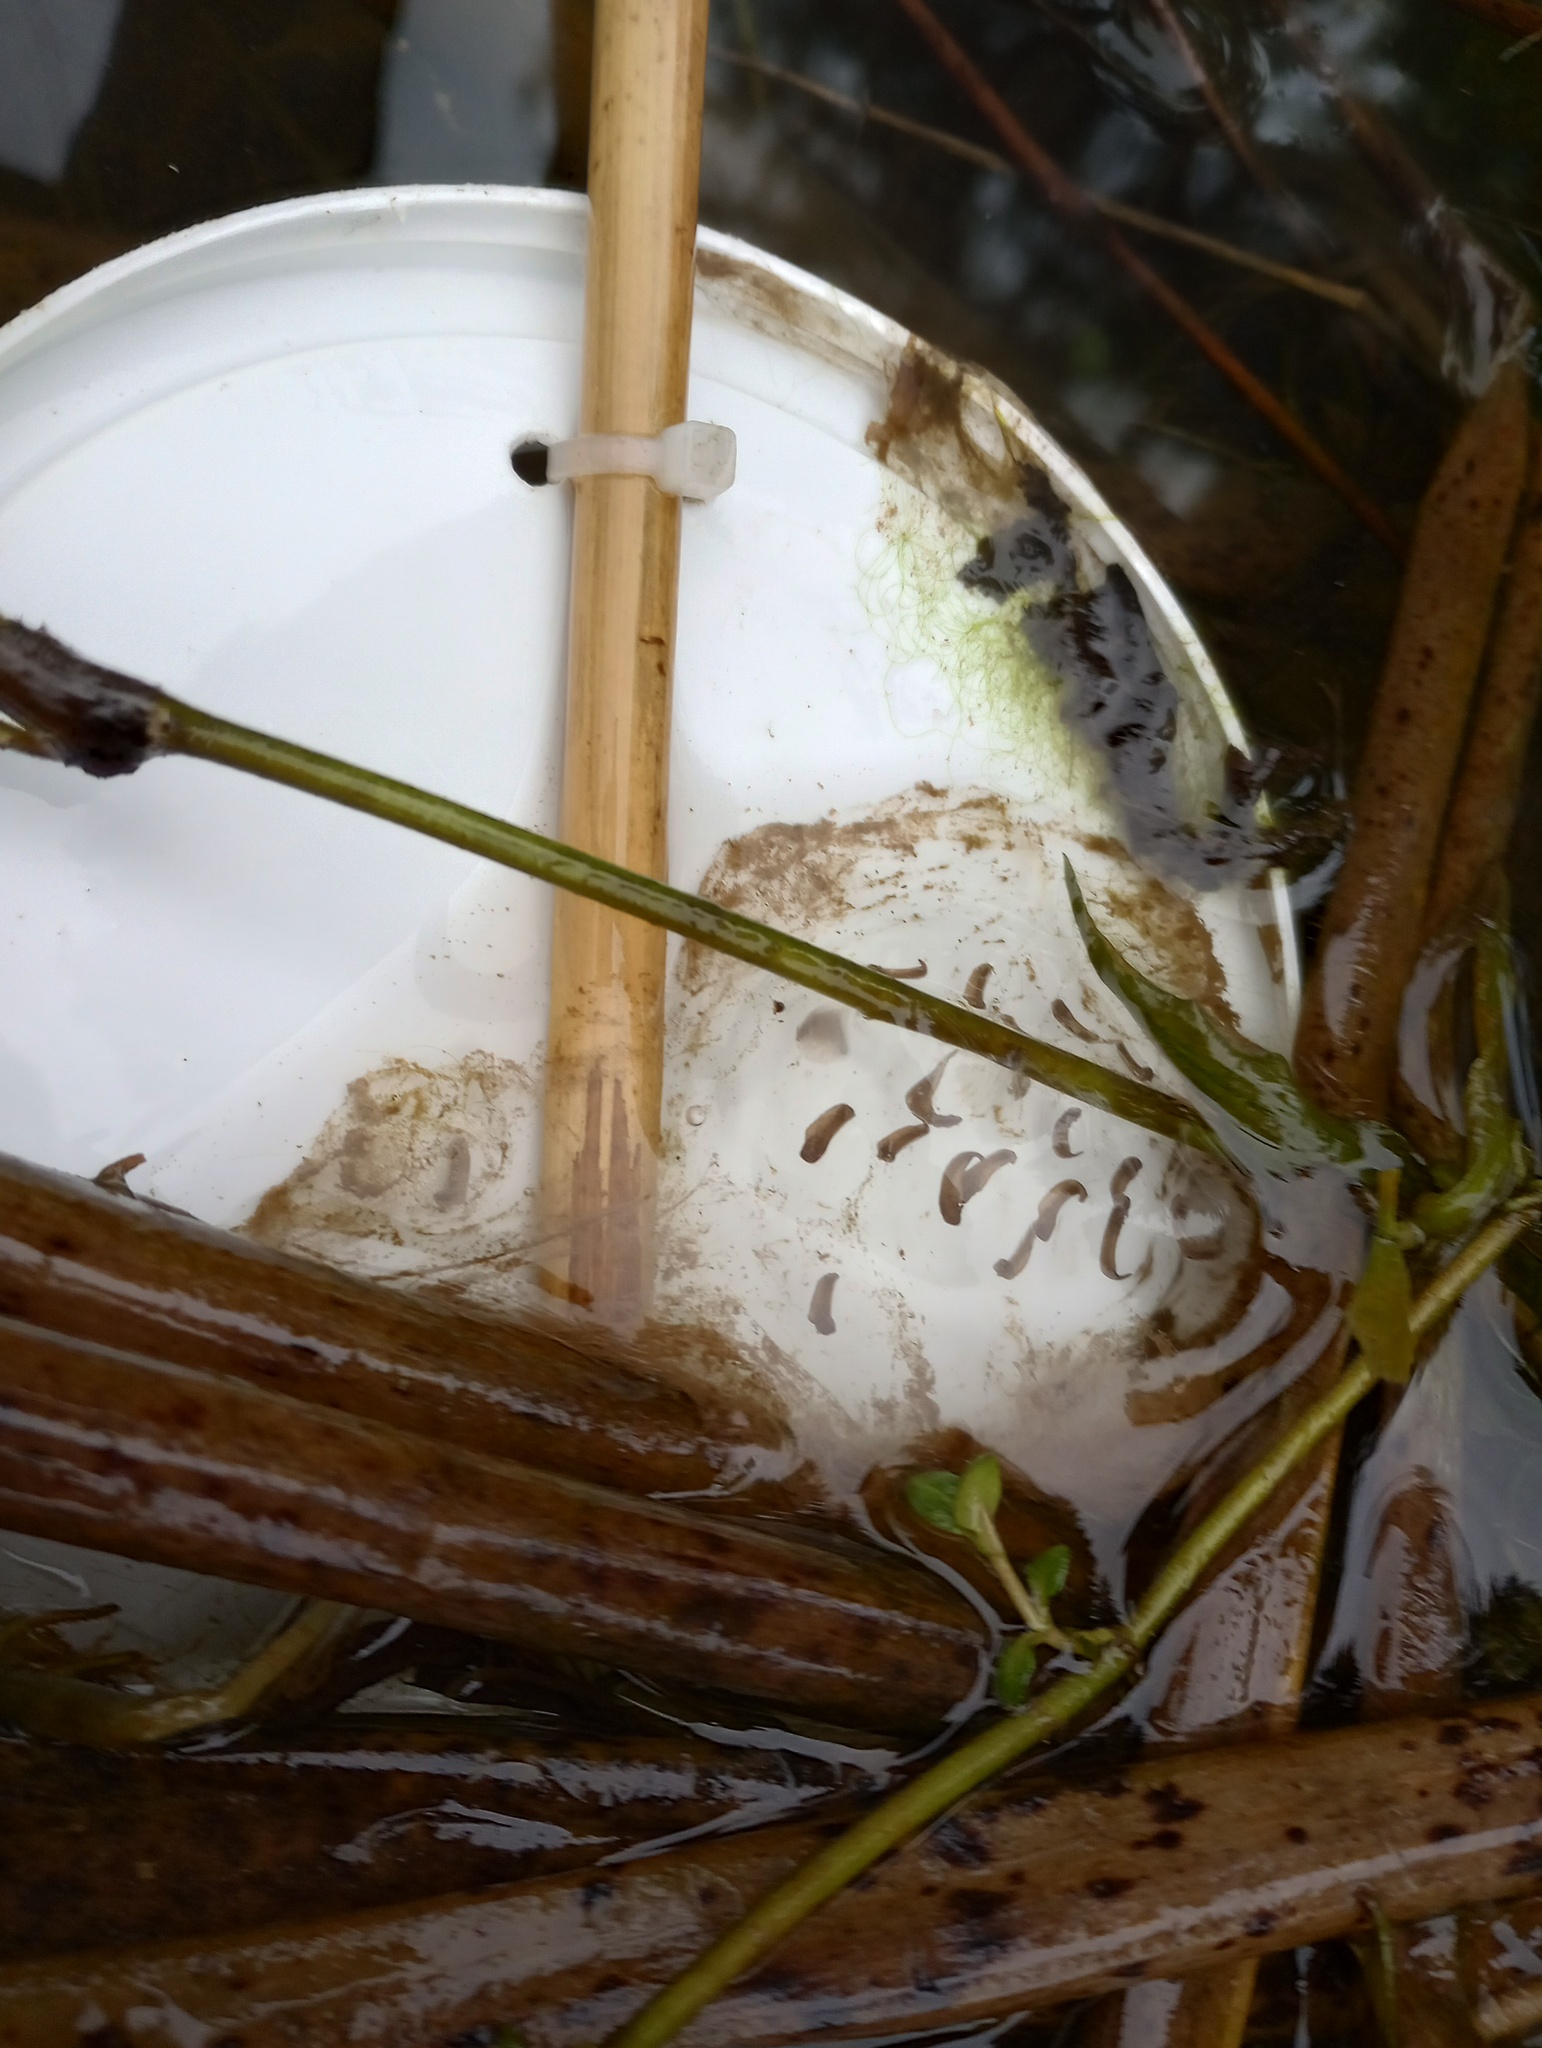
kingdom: Animalia
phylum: Chordata
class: Amphibia
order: Caudata
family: Ambystomatidae
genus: Ambystoma
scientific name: Ambystoma macrodactylum
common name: Long-toed salamander
